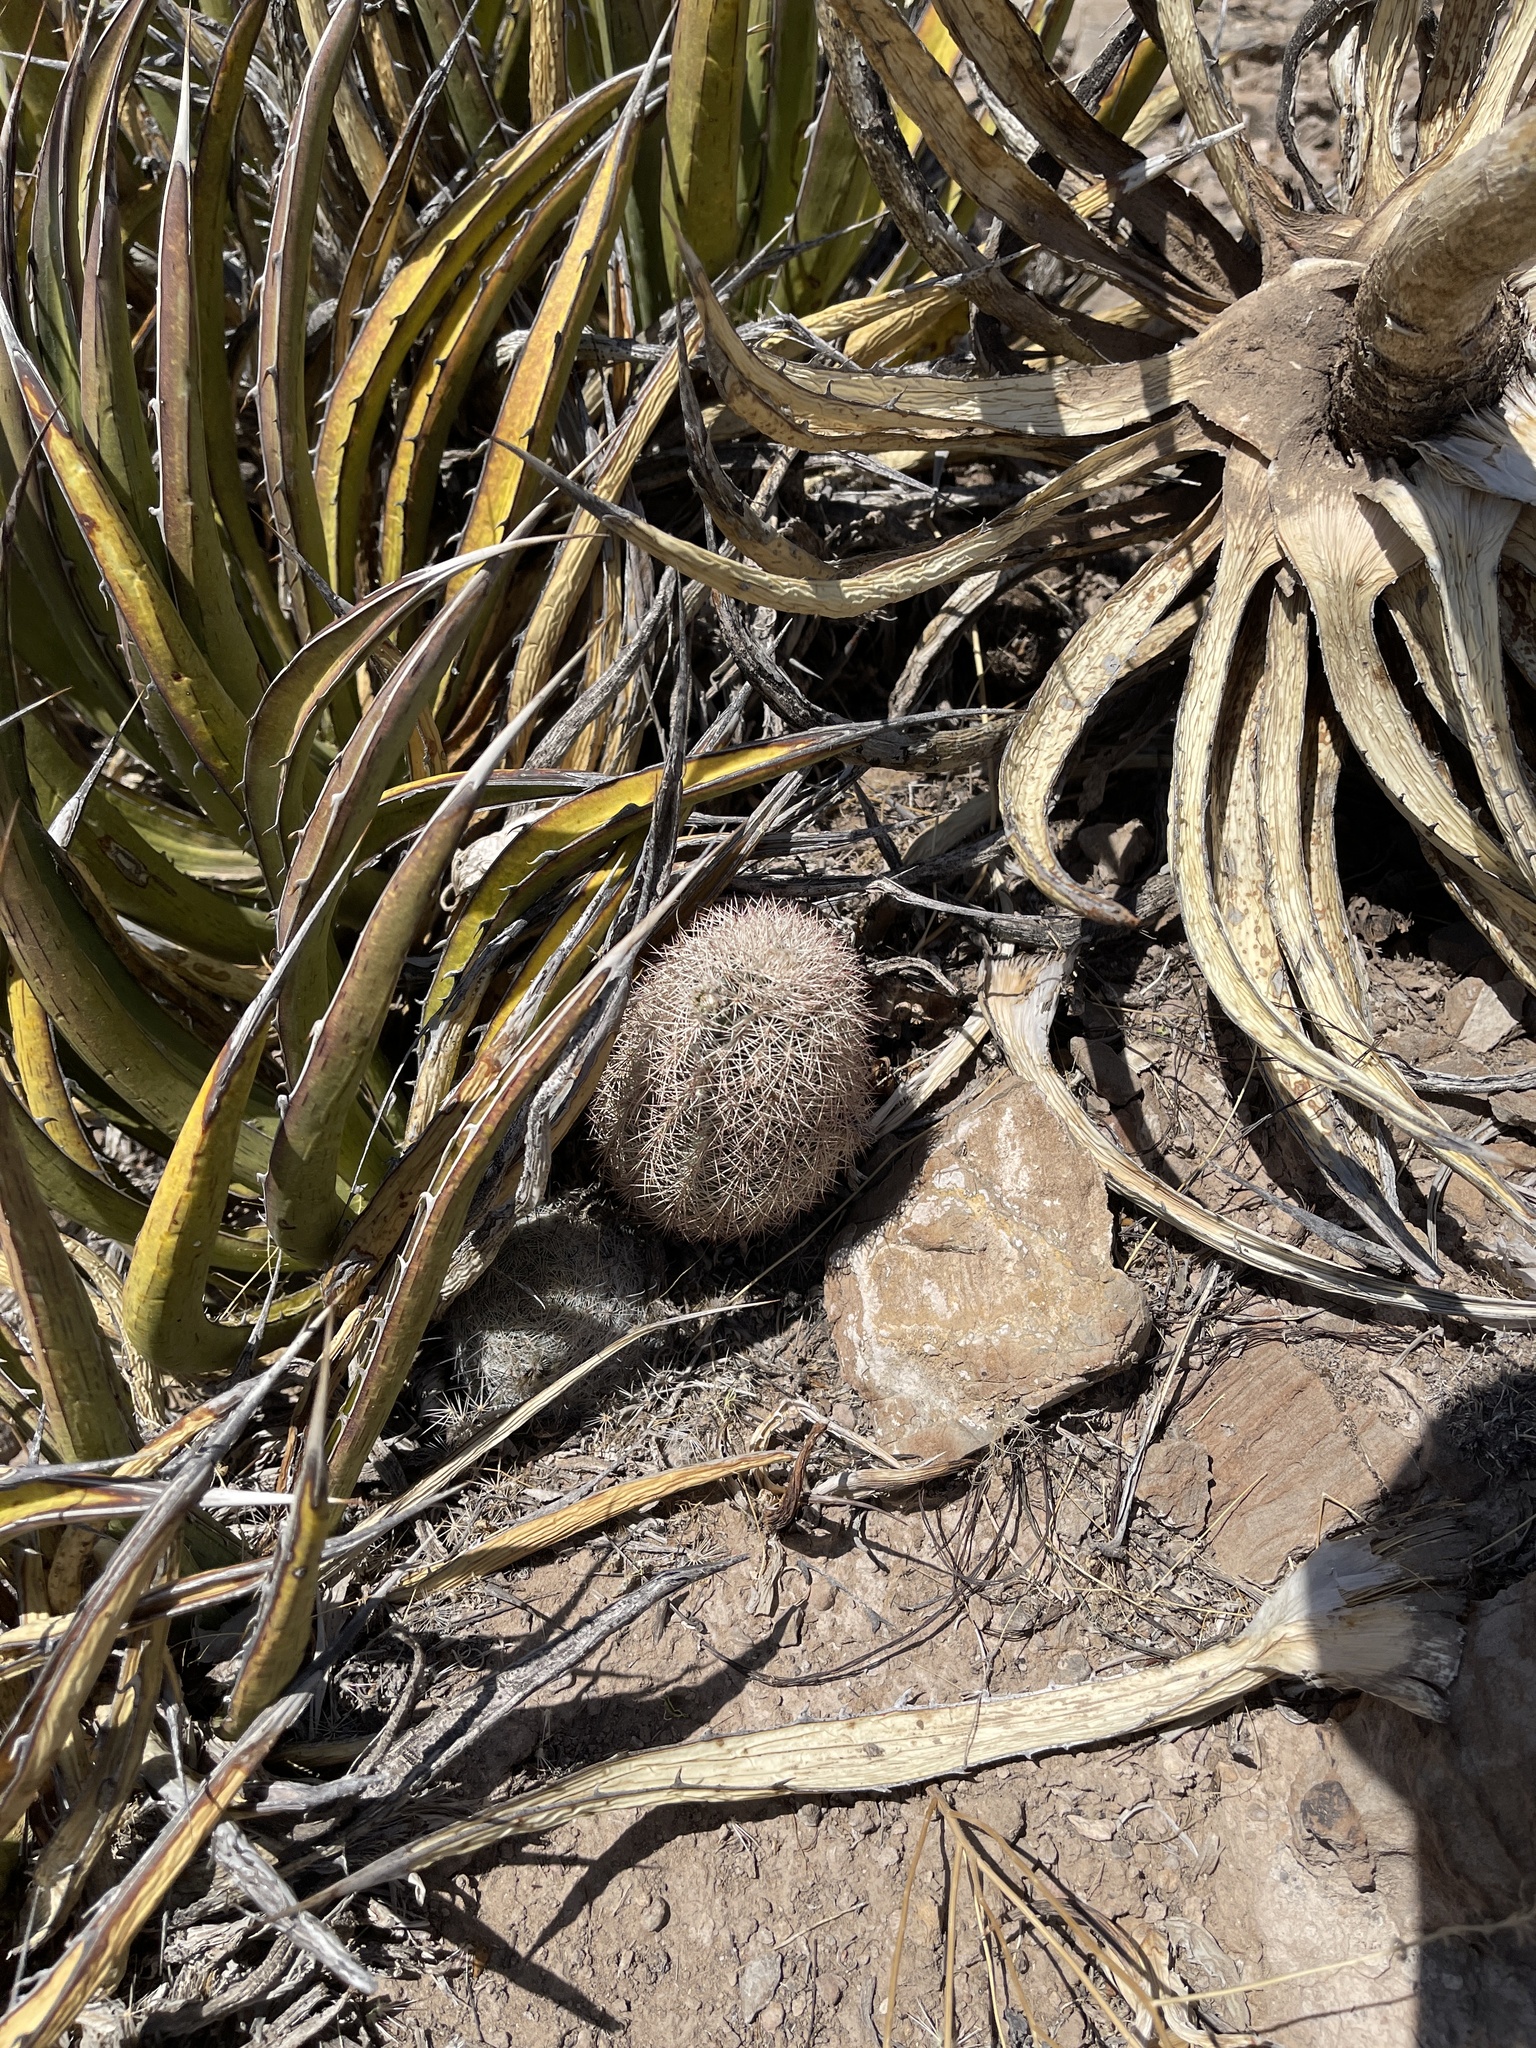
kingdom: Plantae
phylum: Tracheophyta
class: Magnoliopsida
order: Caryophyllales
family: Cactaceae
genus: Echinocereus
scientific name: Echinocereus dasyacanthus
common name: Spiny hedgehog cactus
